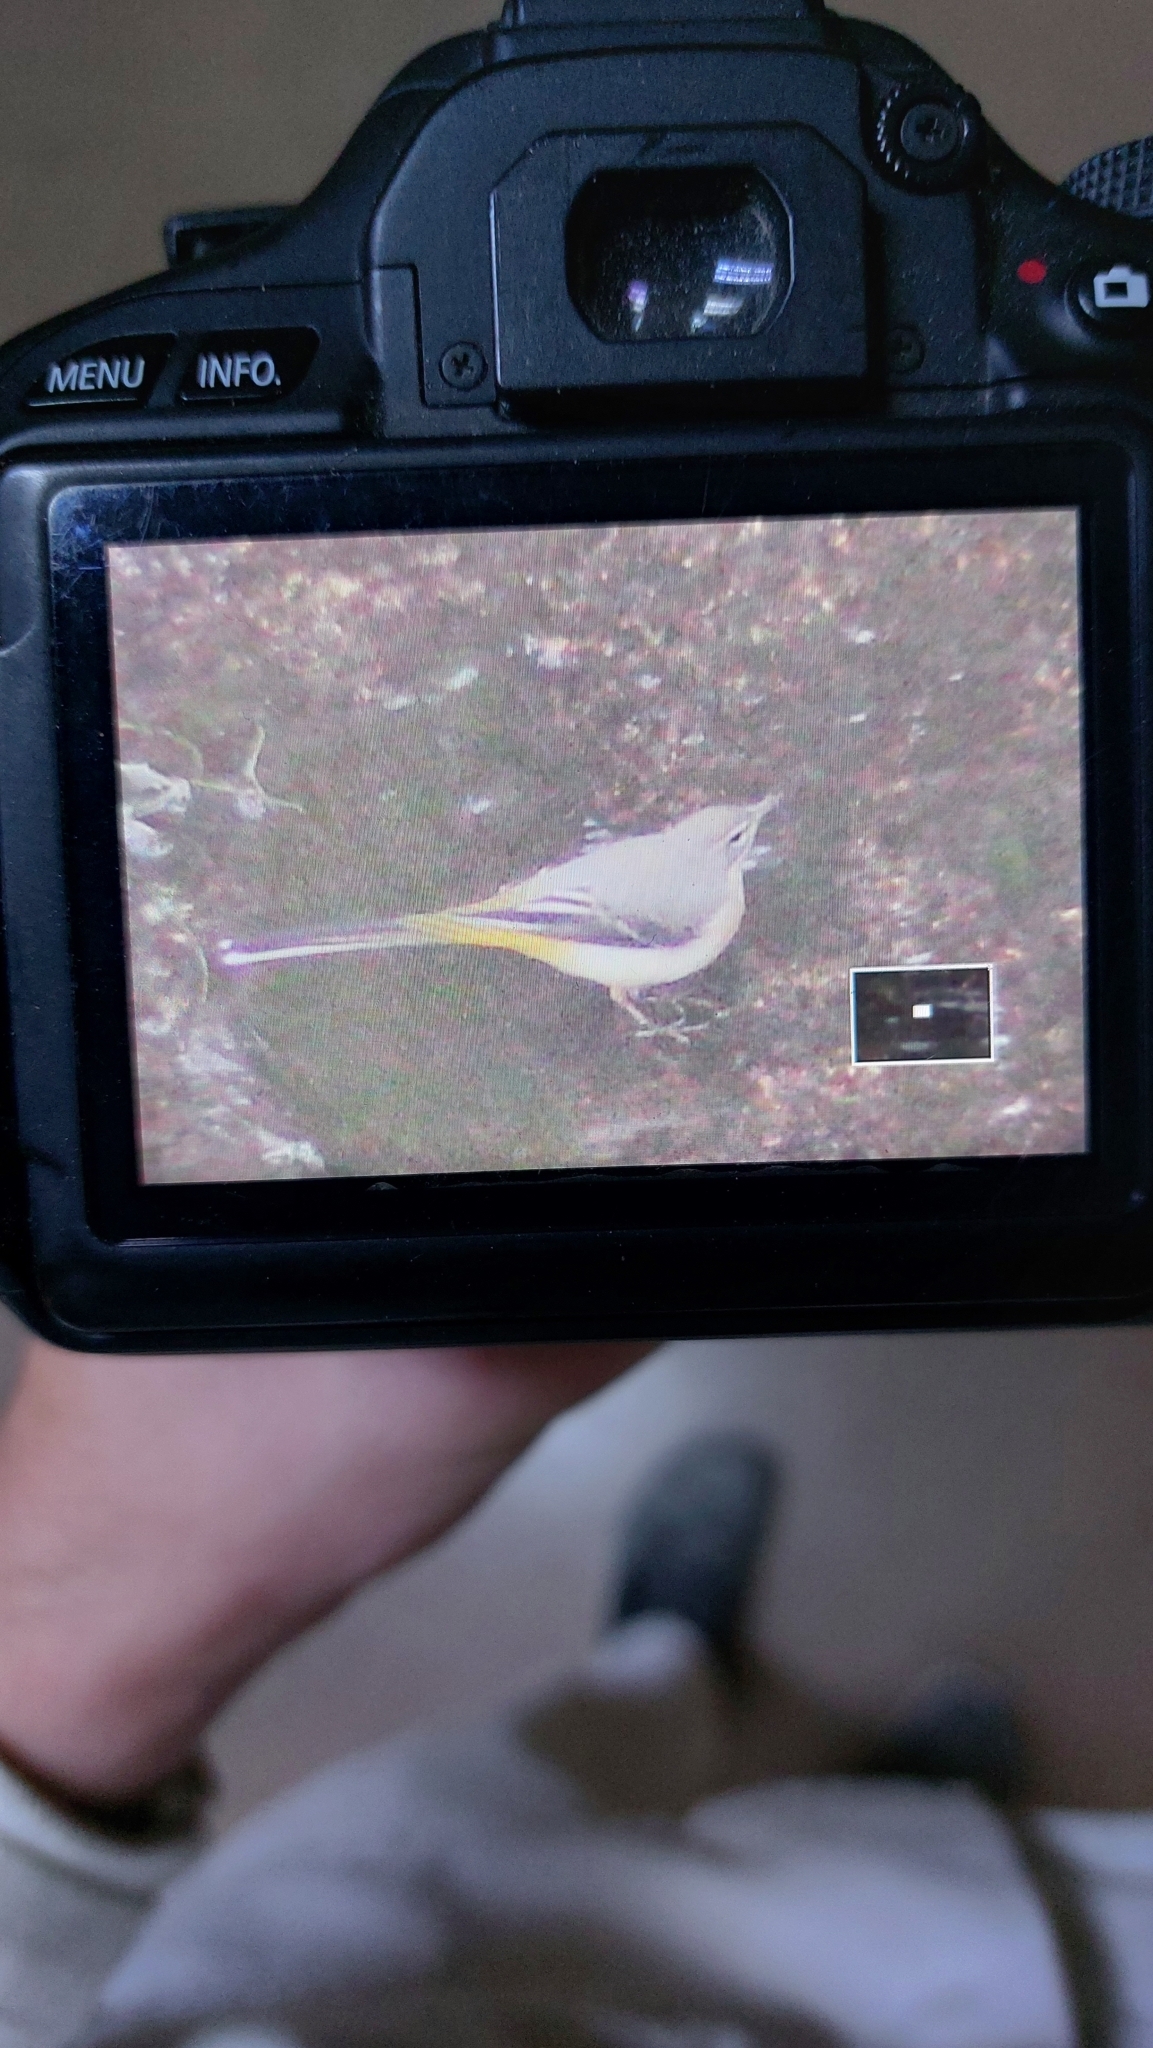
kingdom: Animalia
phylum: Chordata
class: Aves
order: Passeriformes
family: Motacillidae
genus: Motacilla
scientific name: Motacilla cinerea
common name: Grey wagtail
